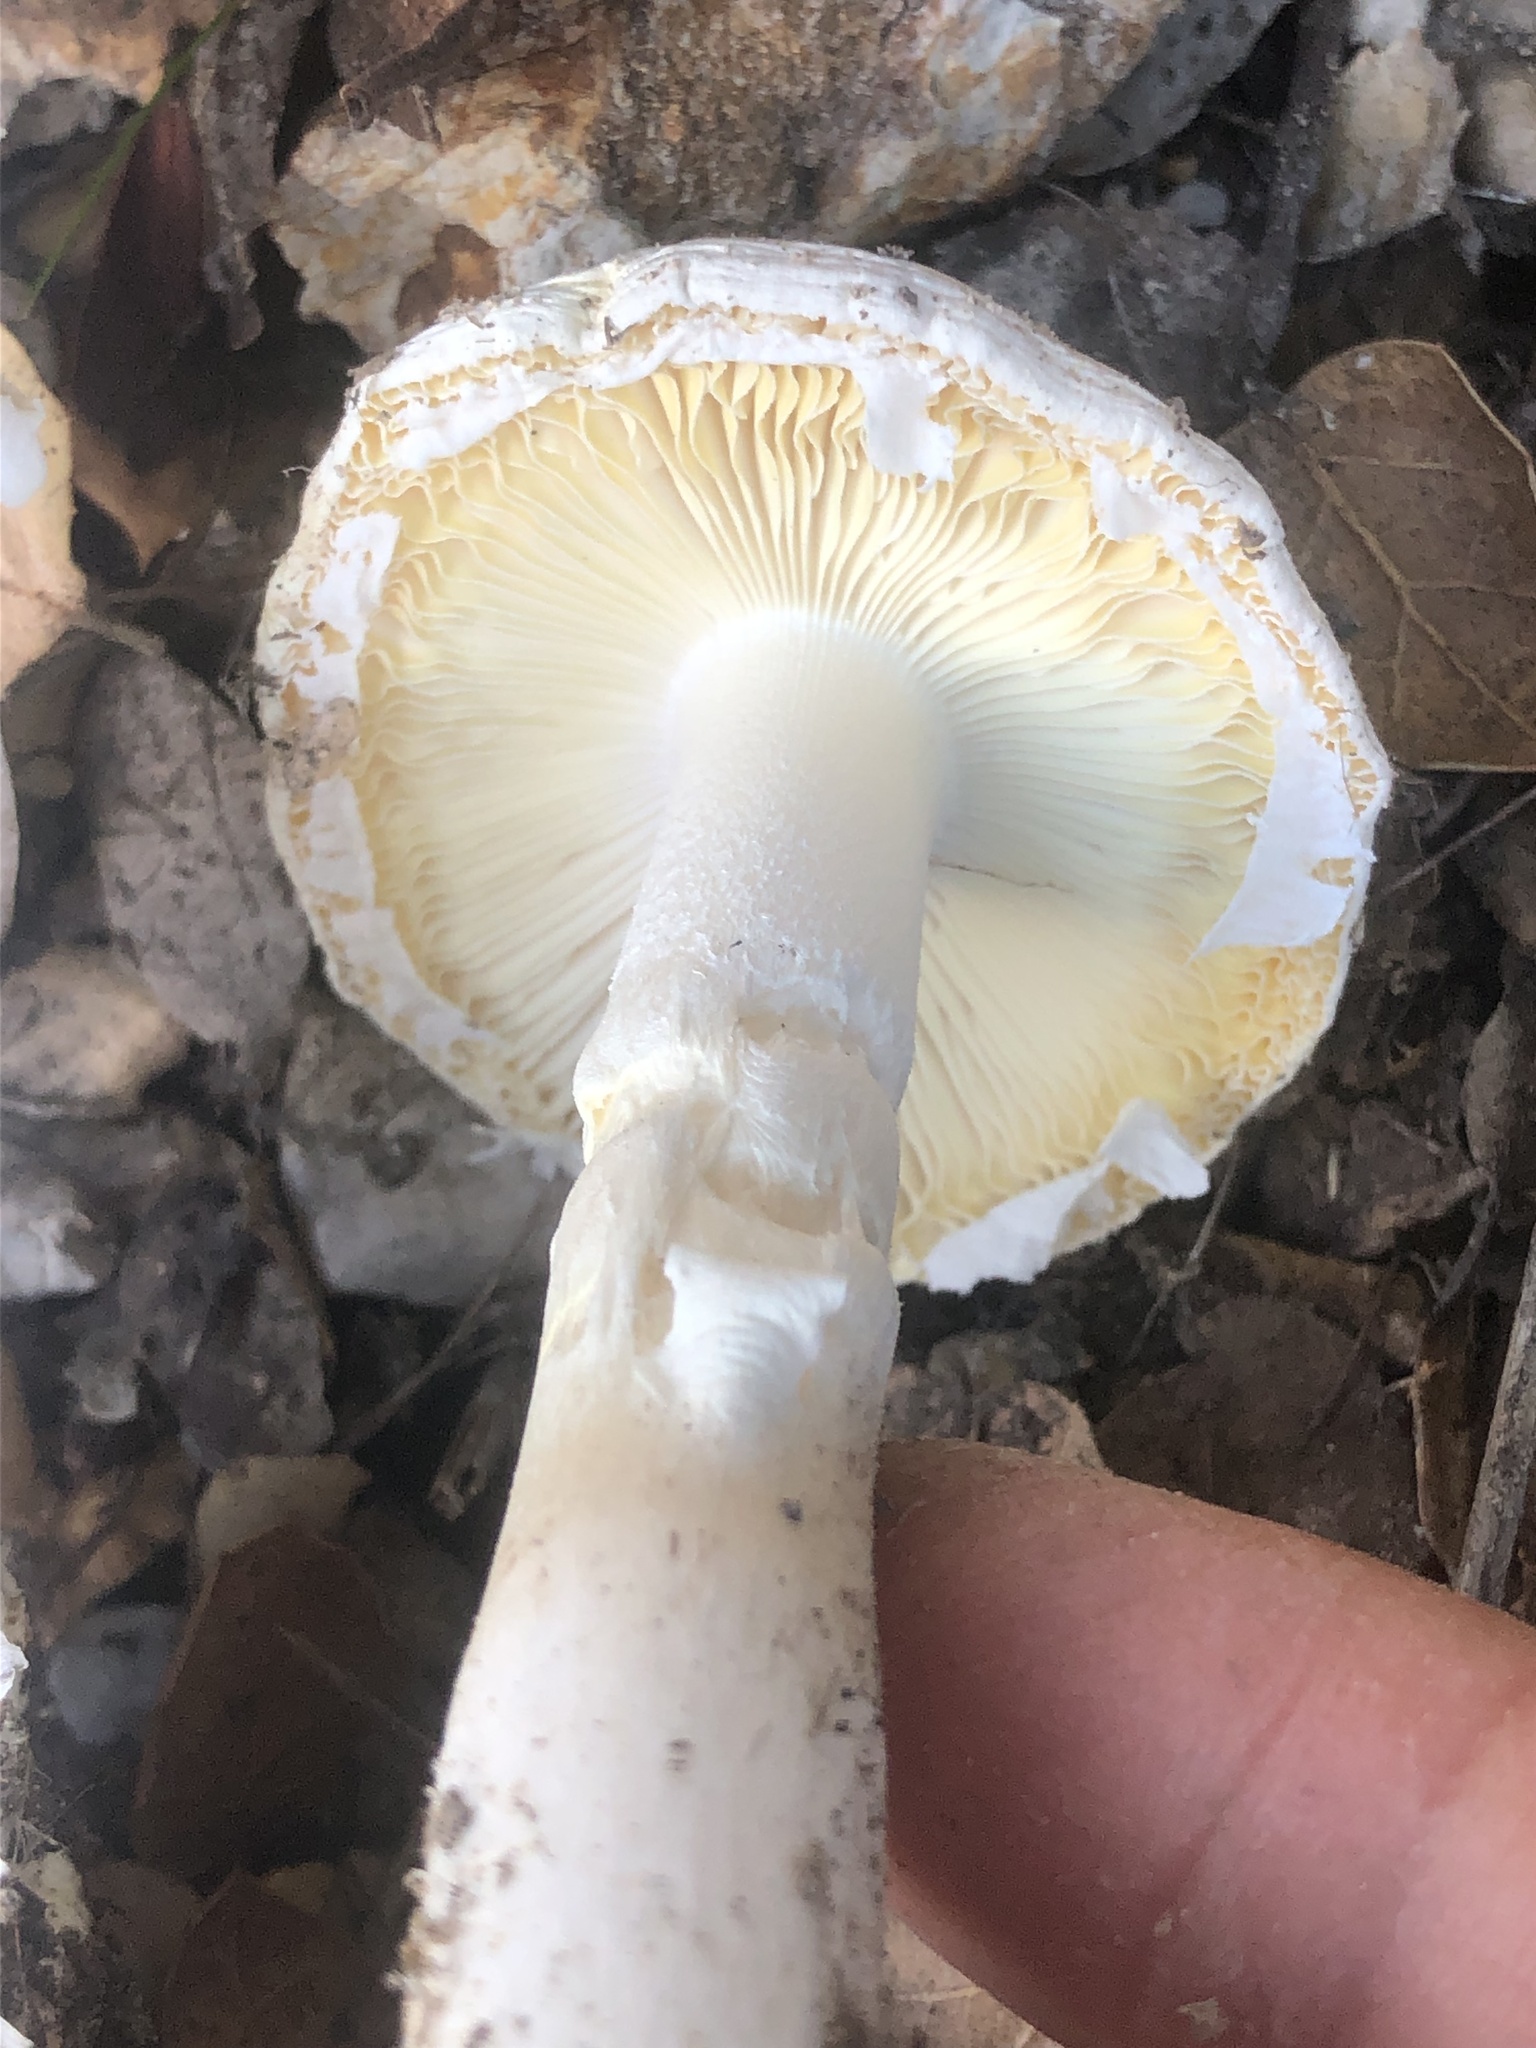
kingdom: Fungi
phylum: Basidiomycota
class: Agaricomycetes
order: Agaricales
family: Amanitaceae
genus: Amanita
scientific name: Amanita ocreata
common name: Western destroying angel
